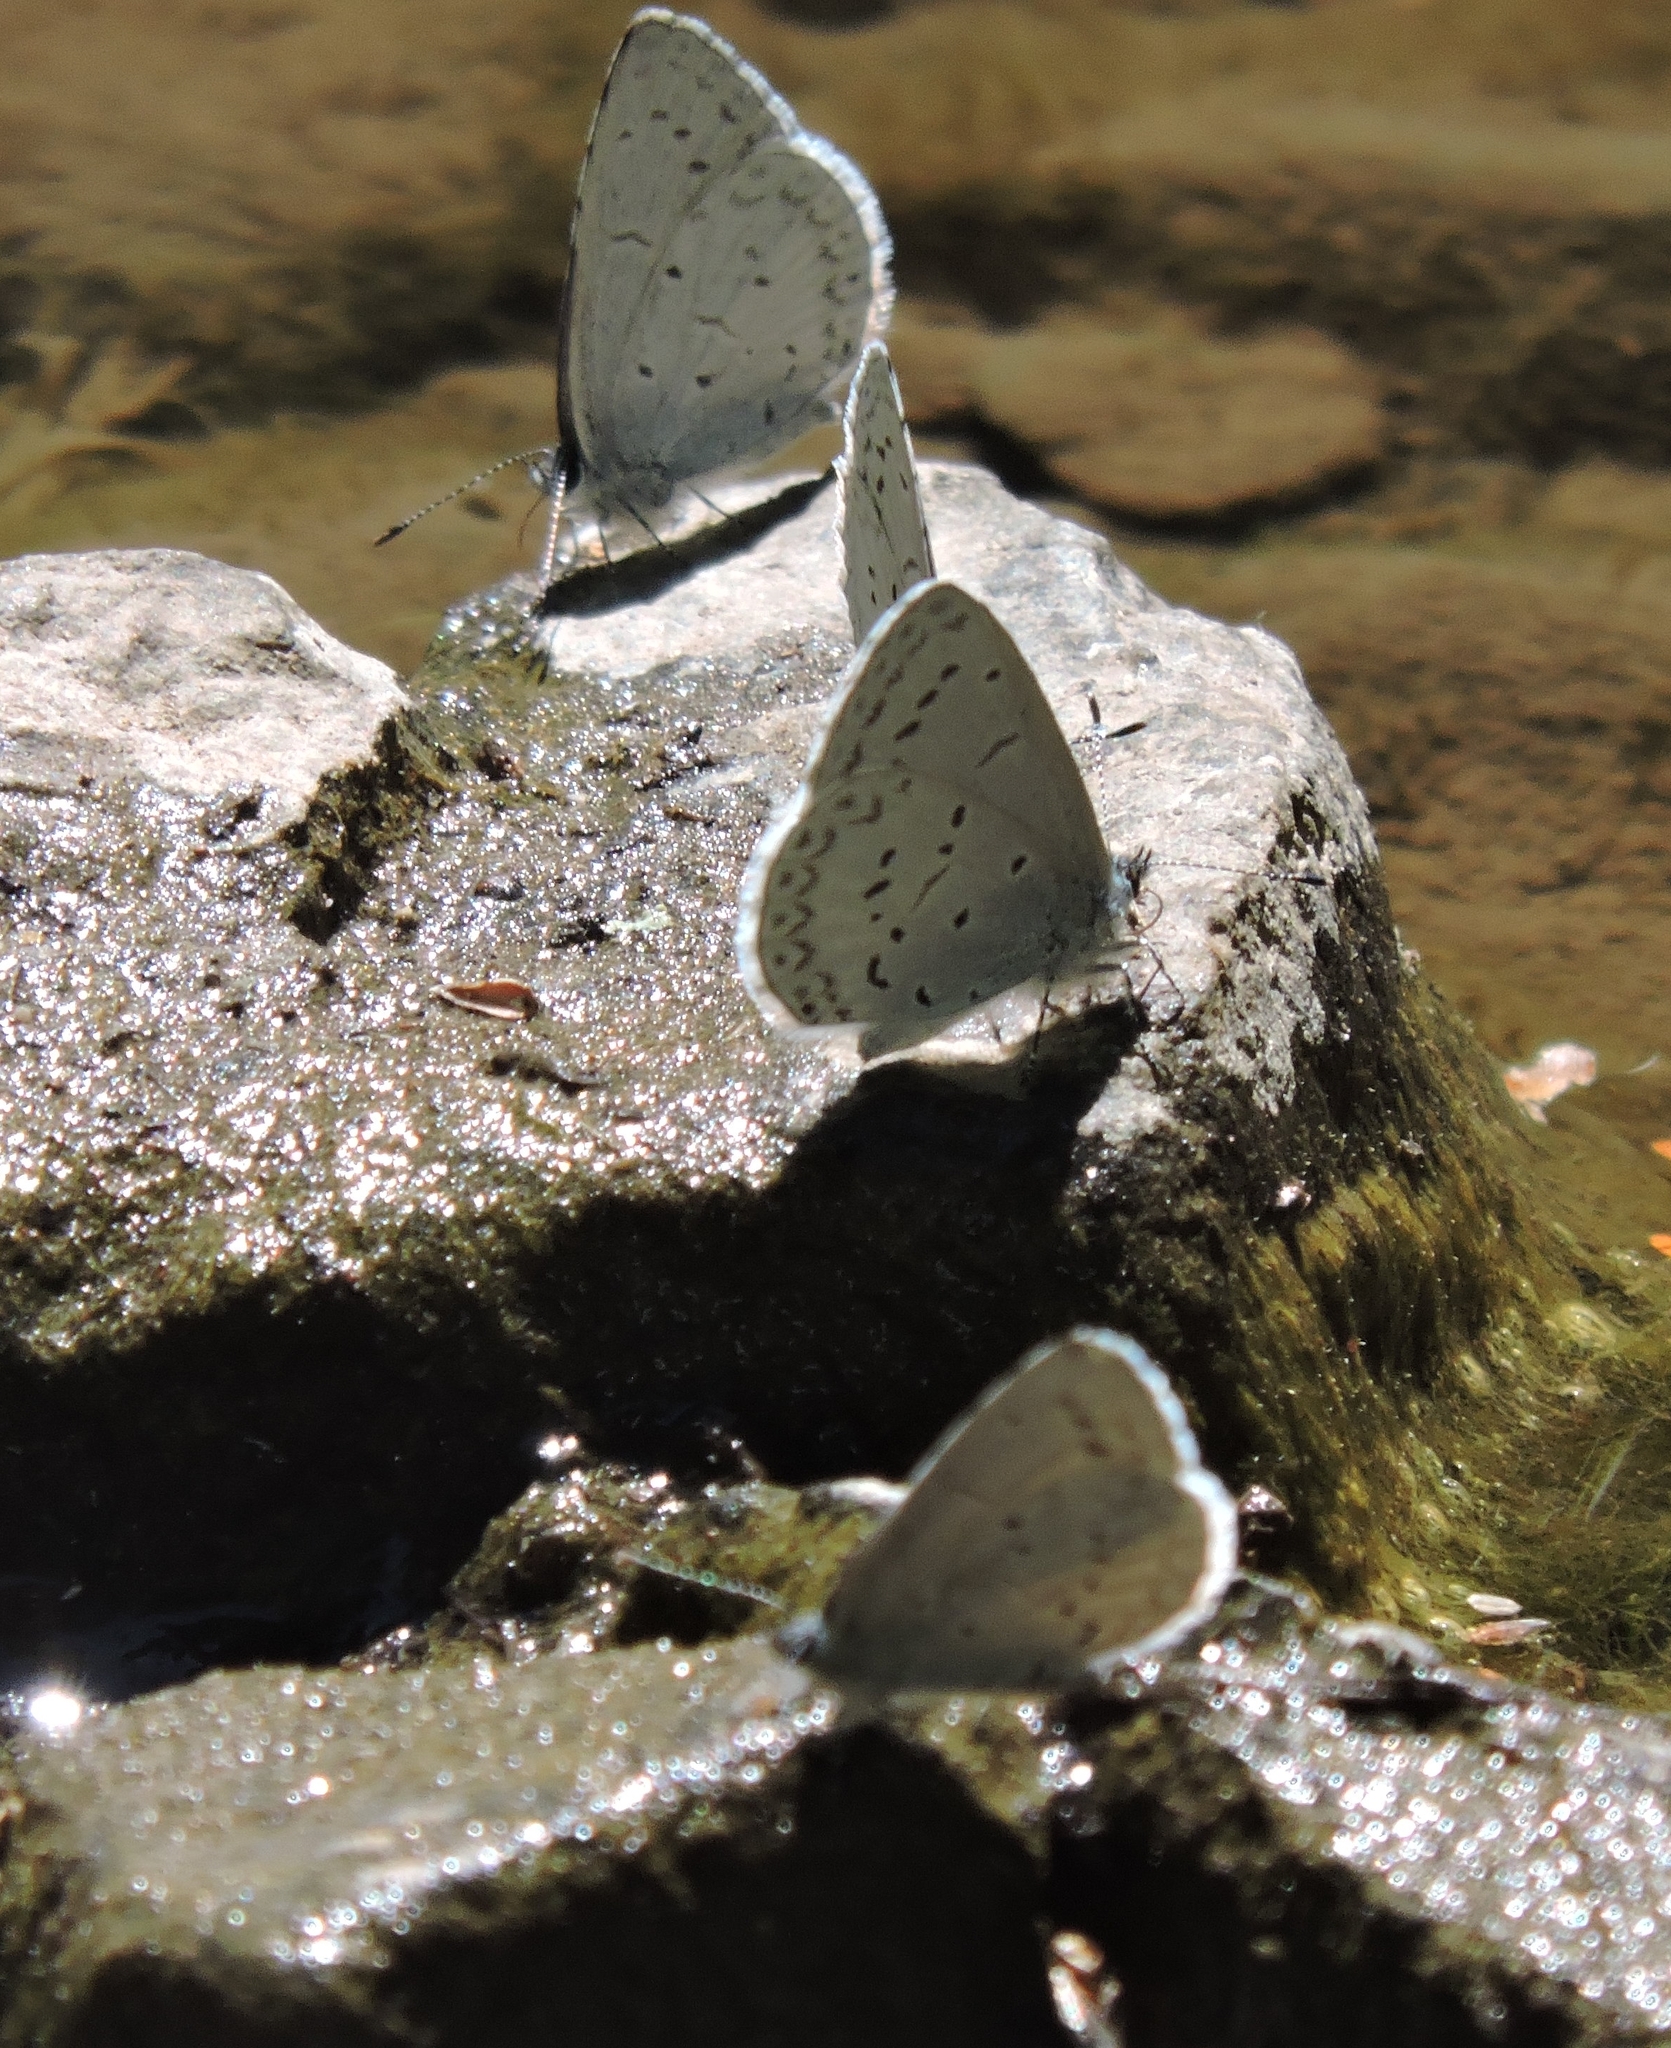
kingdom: Animalia
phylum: Arthropoda
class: Insecta
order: Lepidoptera
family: Lycaenidae
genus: Celastrina
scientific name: Celastrina ladon
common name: Spring azure
